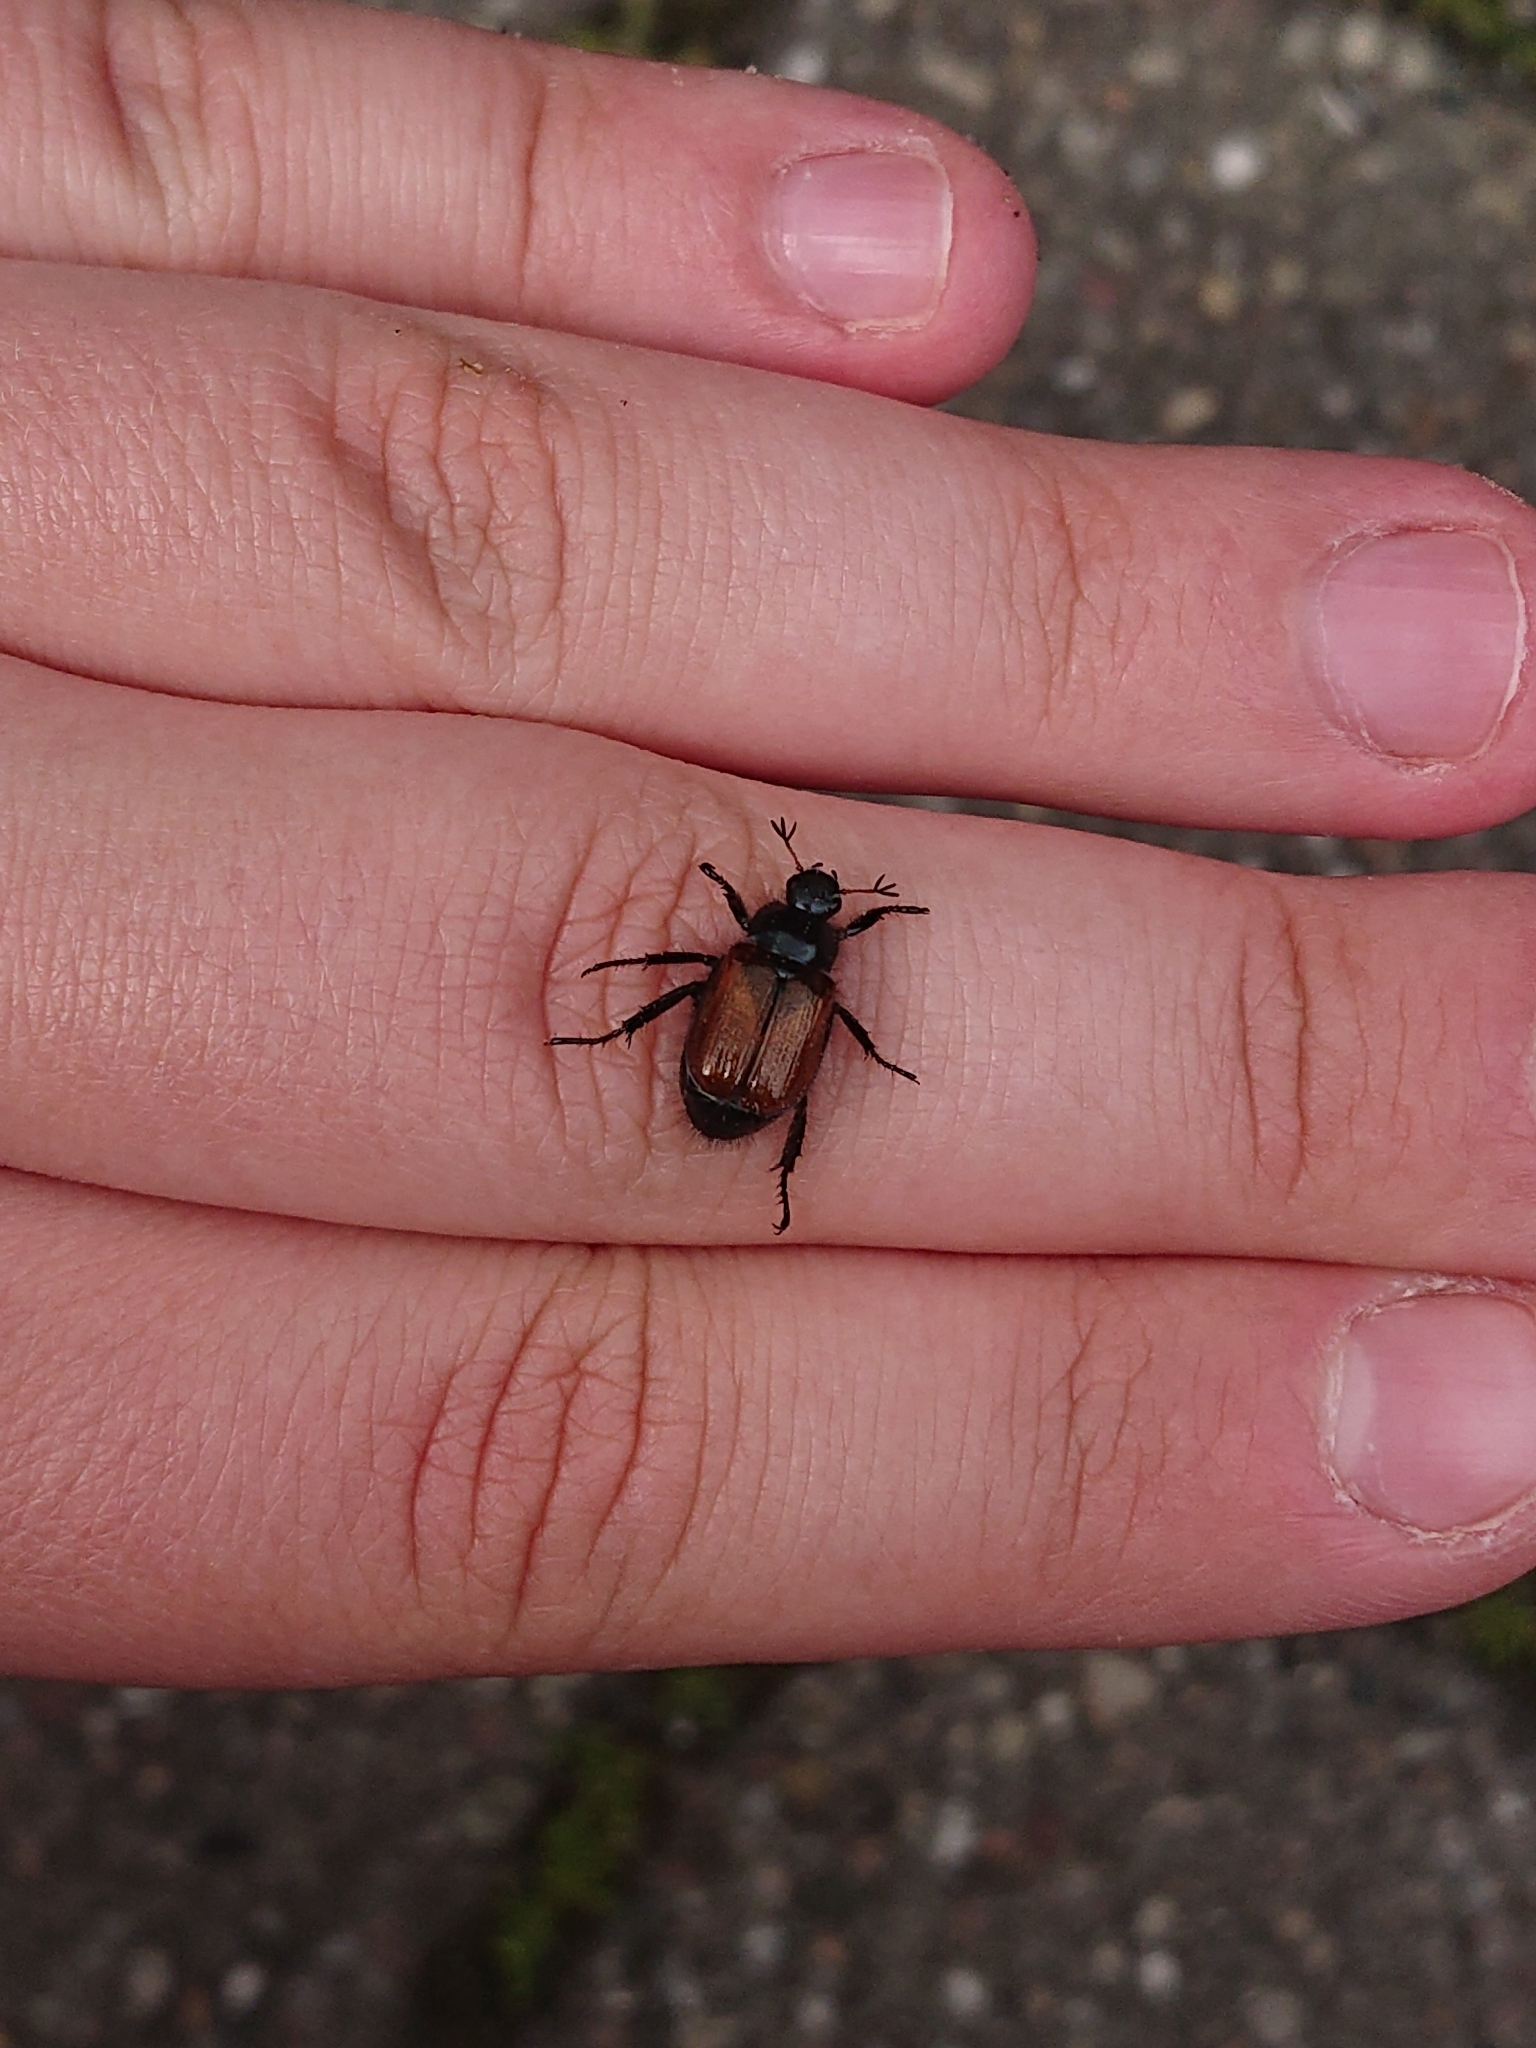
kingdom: Animalia
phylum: Arthropoda
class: Insecta
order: Coleoptera
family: Scarabaeidae
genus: Phyllopertha
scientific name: Phyllopertha horticola
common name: Garden chafer
